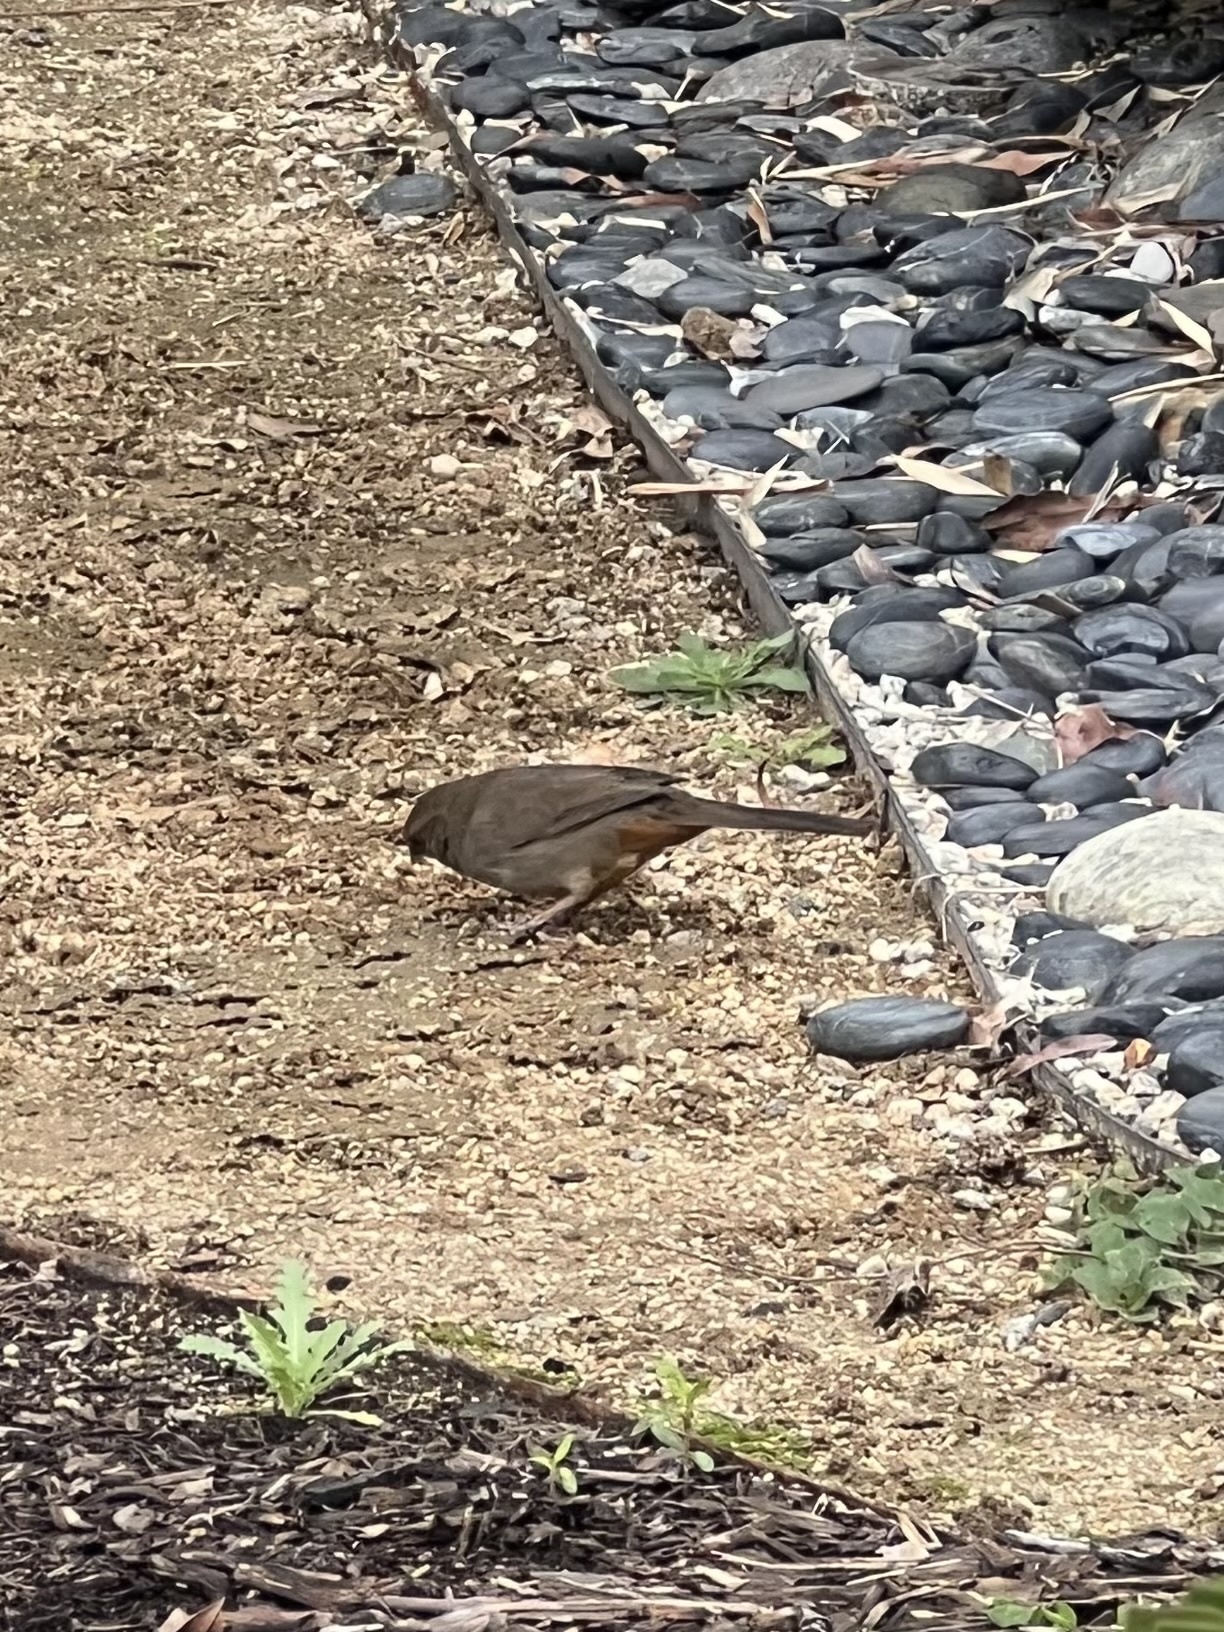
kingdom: Animalia
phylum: Chordata
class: Aves
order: Passeriformes
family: Passerellidae
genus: Melozone
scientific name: Melozone crissalis
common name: California towhee
